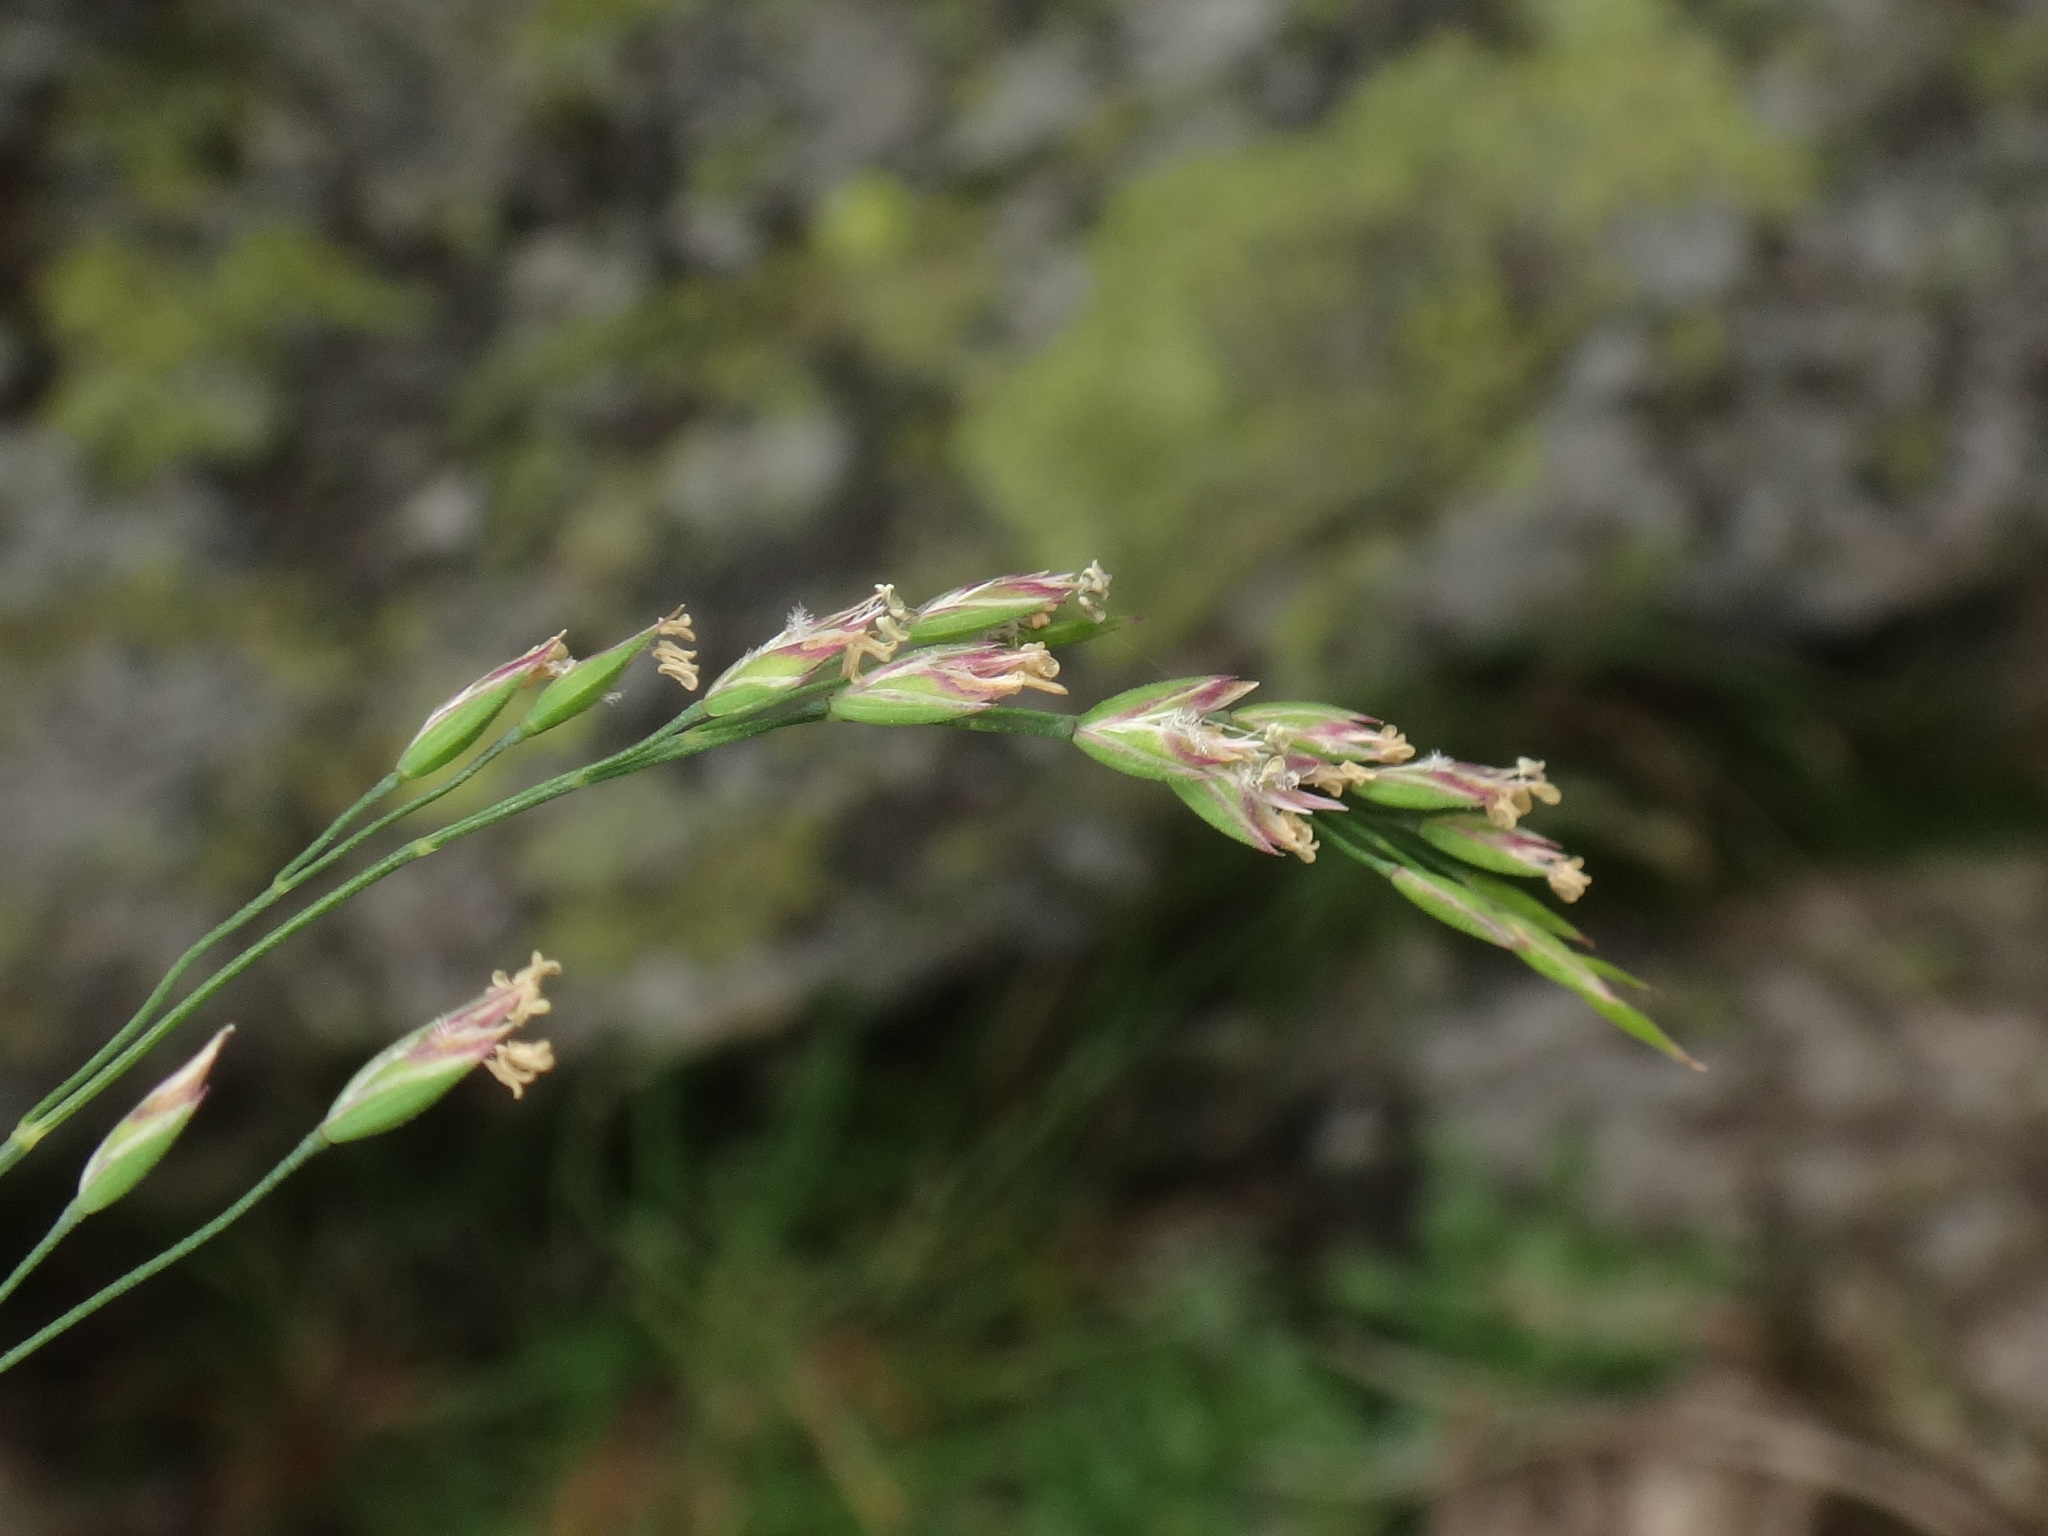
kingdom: Plantae
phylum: Tracheophyta
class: Liliopsida
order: Poales
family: Poaceae
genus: Poa
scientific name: Poa laxa
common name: Lax bluegrass
